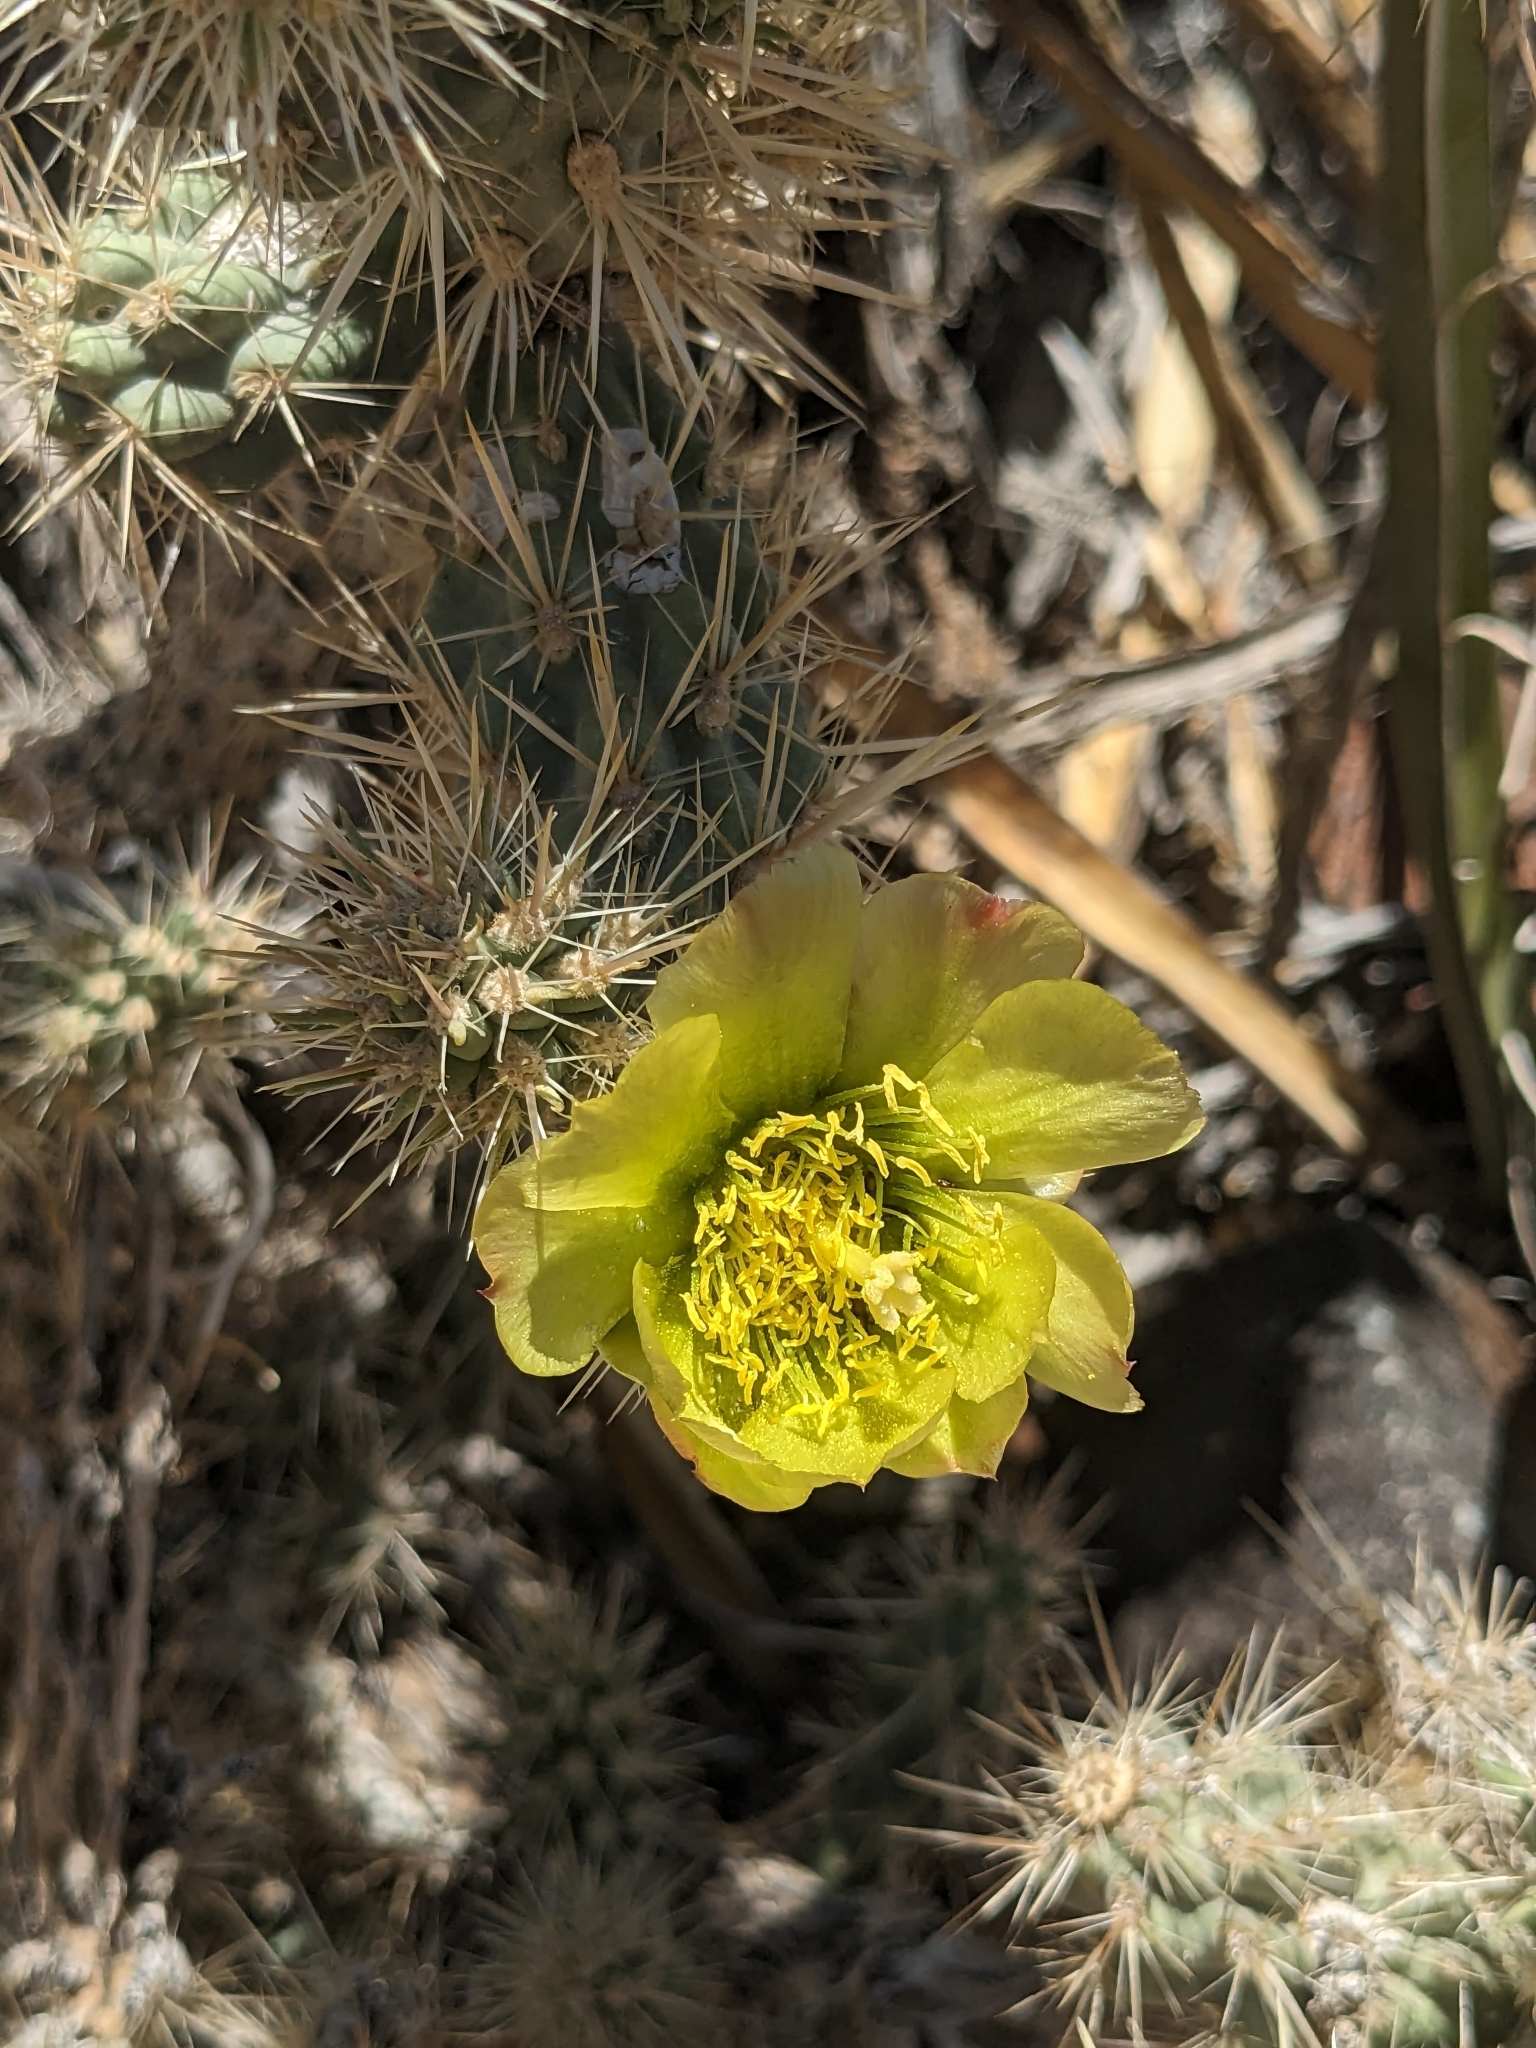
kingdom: Plantae
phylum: Tracheophyta
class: Magnoliopsida
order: Caryophyllales
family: Cactaceae
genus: Cylindropuntia
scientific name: Cylindropuntia echinocarpa
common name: Ground cholla
